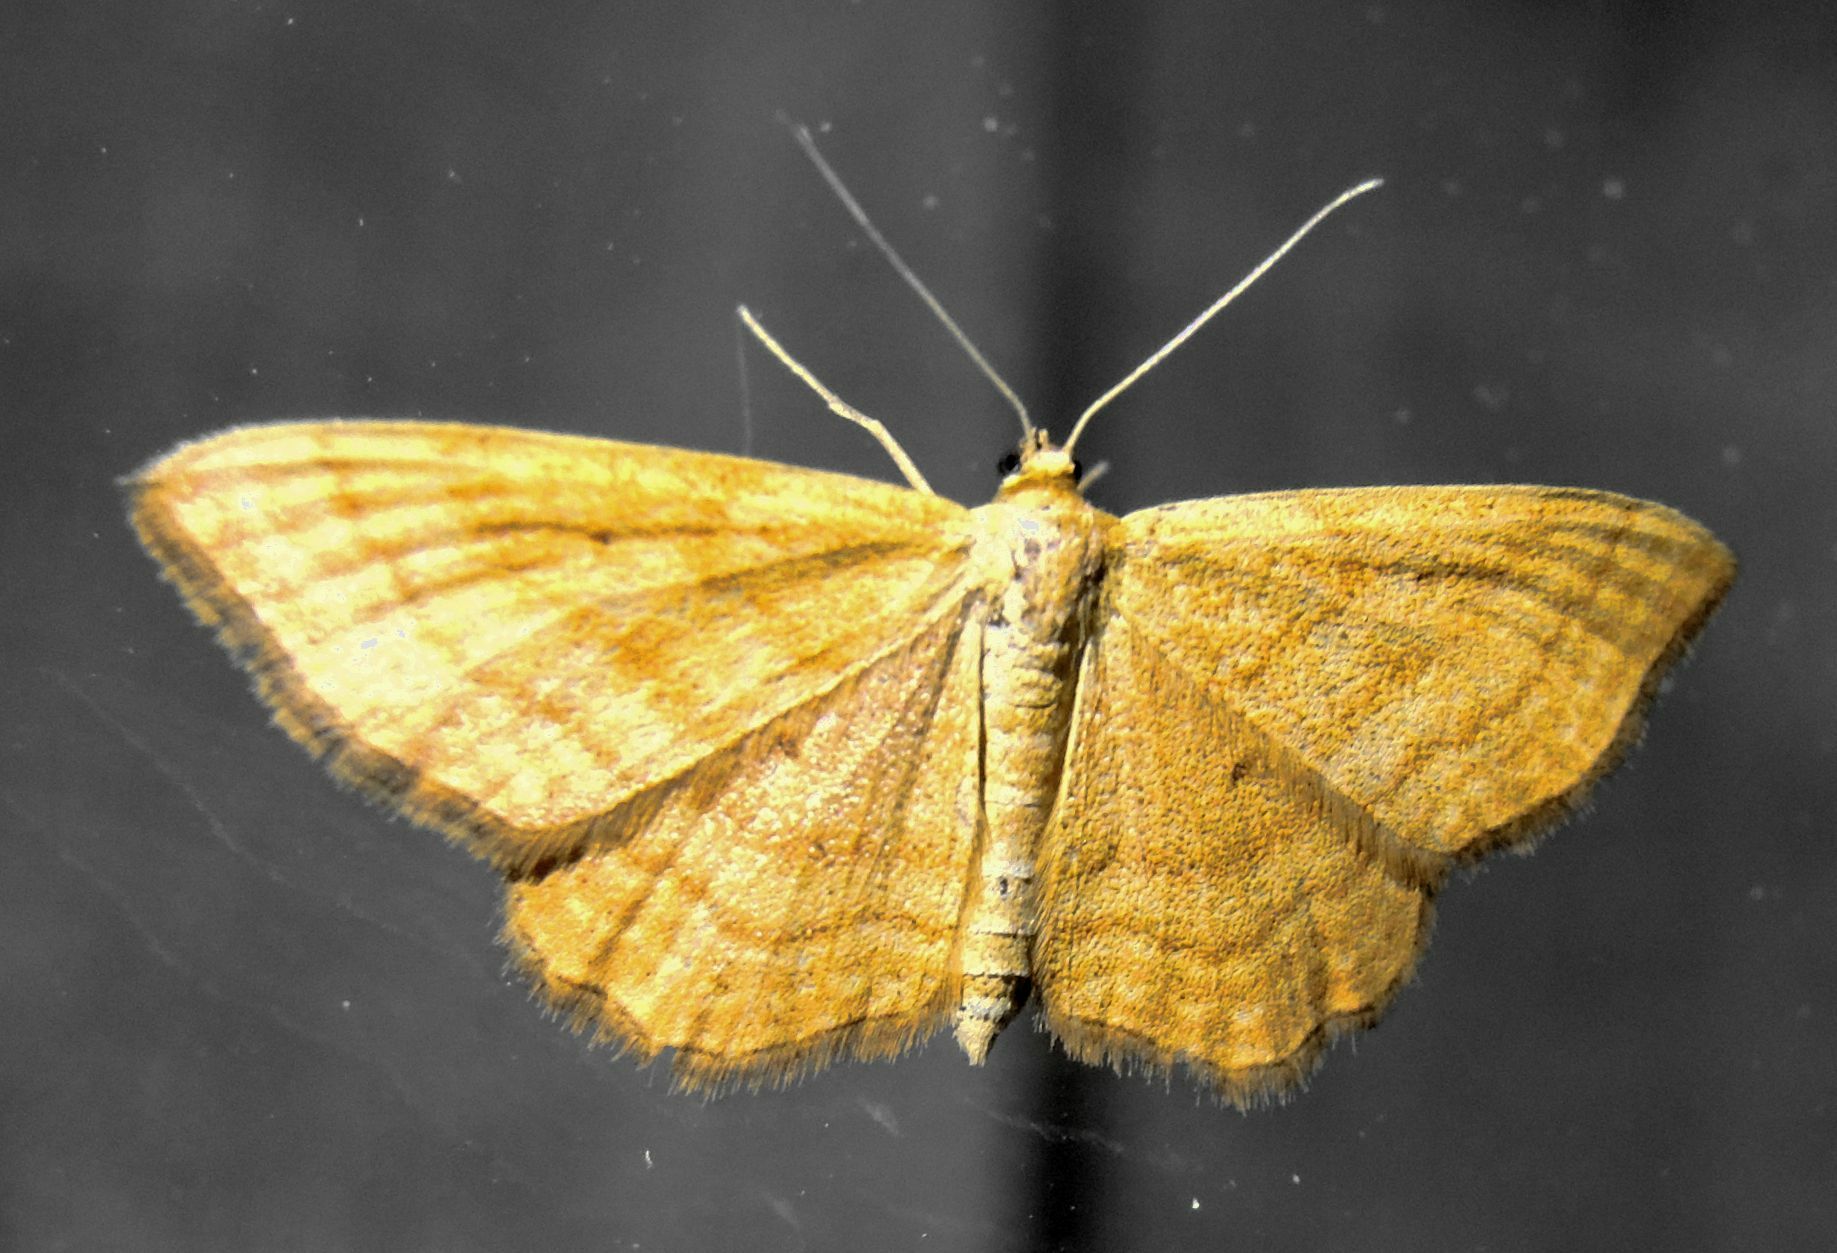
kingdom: Animalia
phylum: Arthropoda
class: Insecta
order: Lepidoptera
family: Geometridae
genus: Idaea
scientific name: Idaea ochrata
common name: Bright wave
